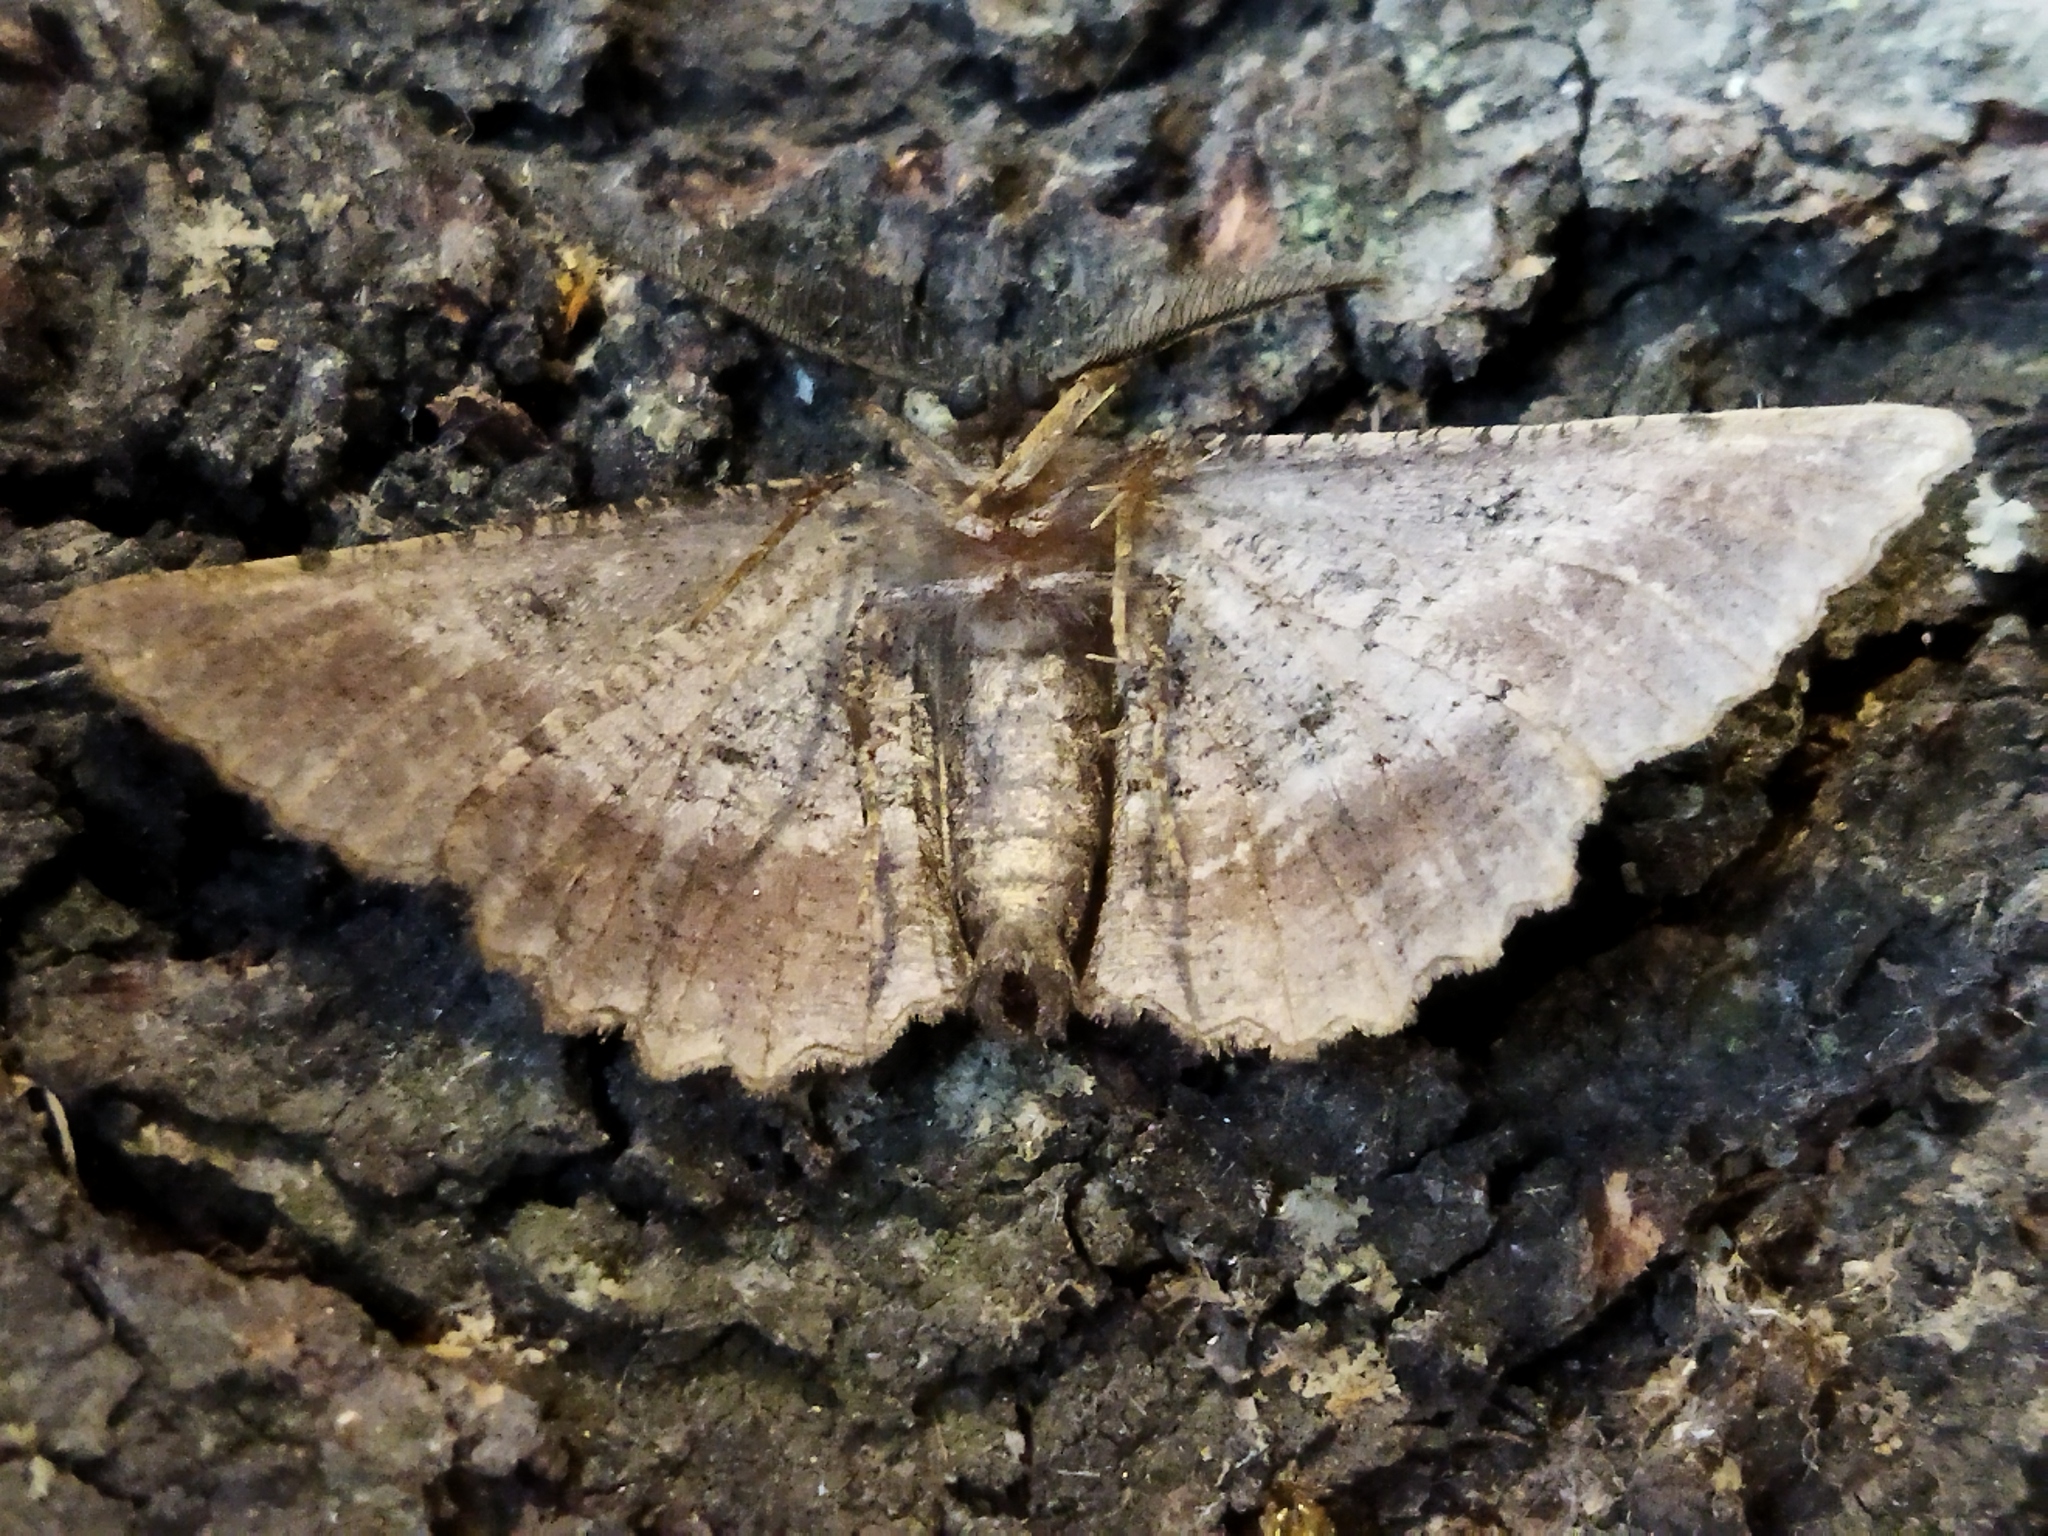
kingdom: Animalia
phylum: Arthropoda
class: Insecta
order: Lepidoptera
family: Geometridae
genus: Nychiodes
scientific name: Nychiodes waltheri
